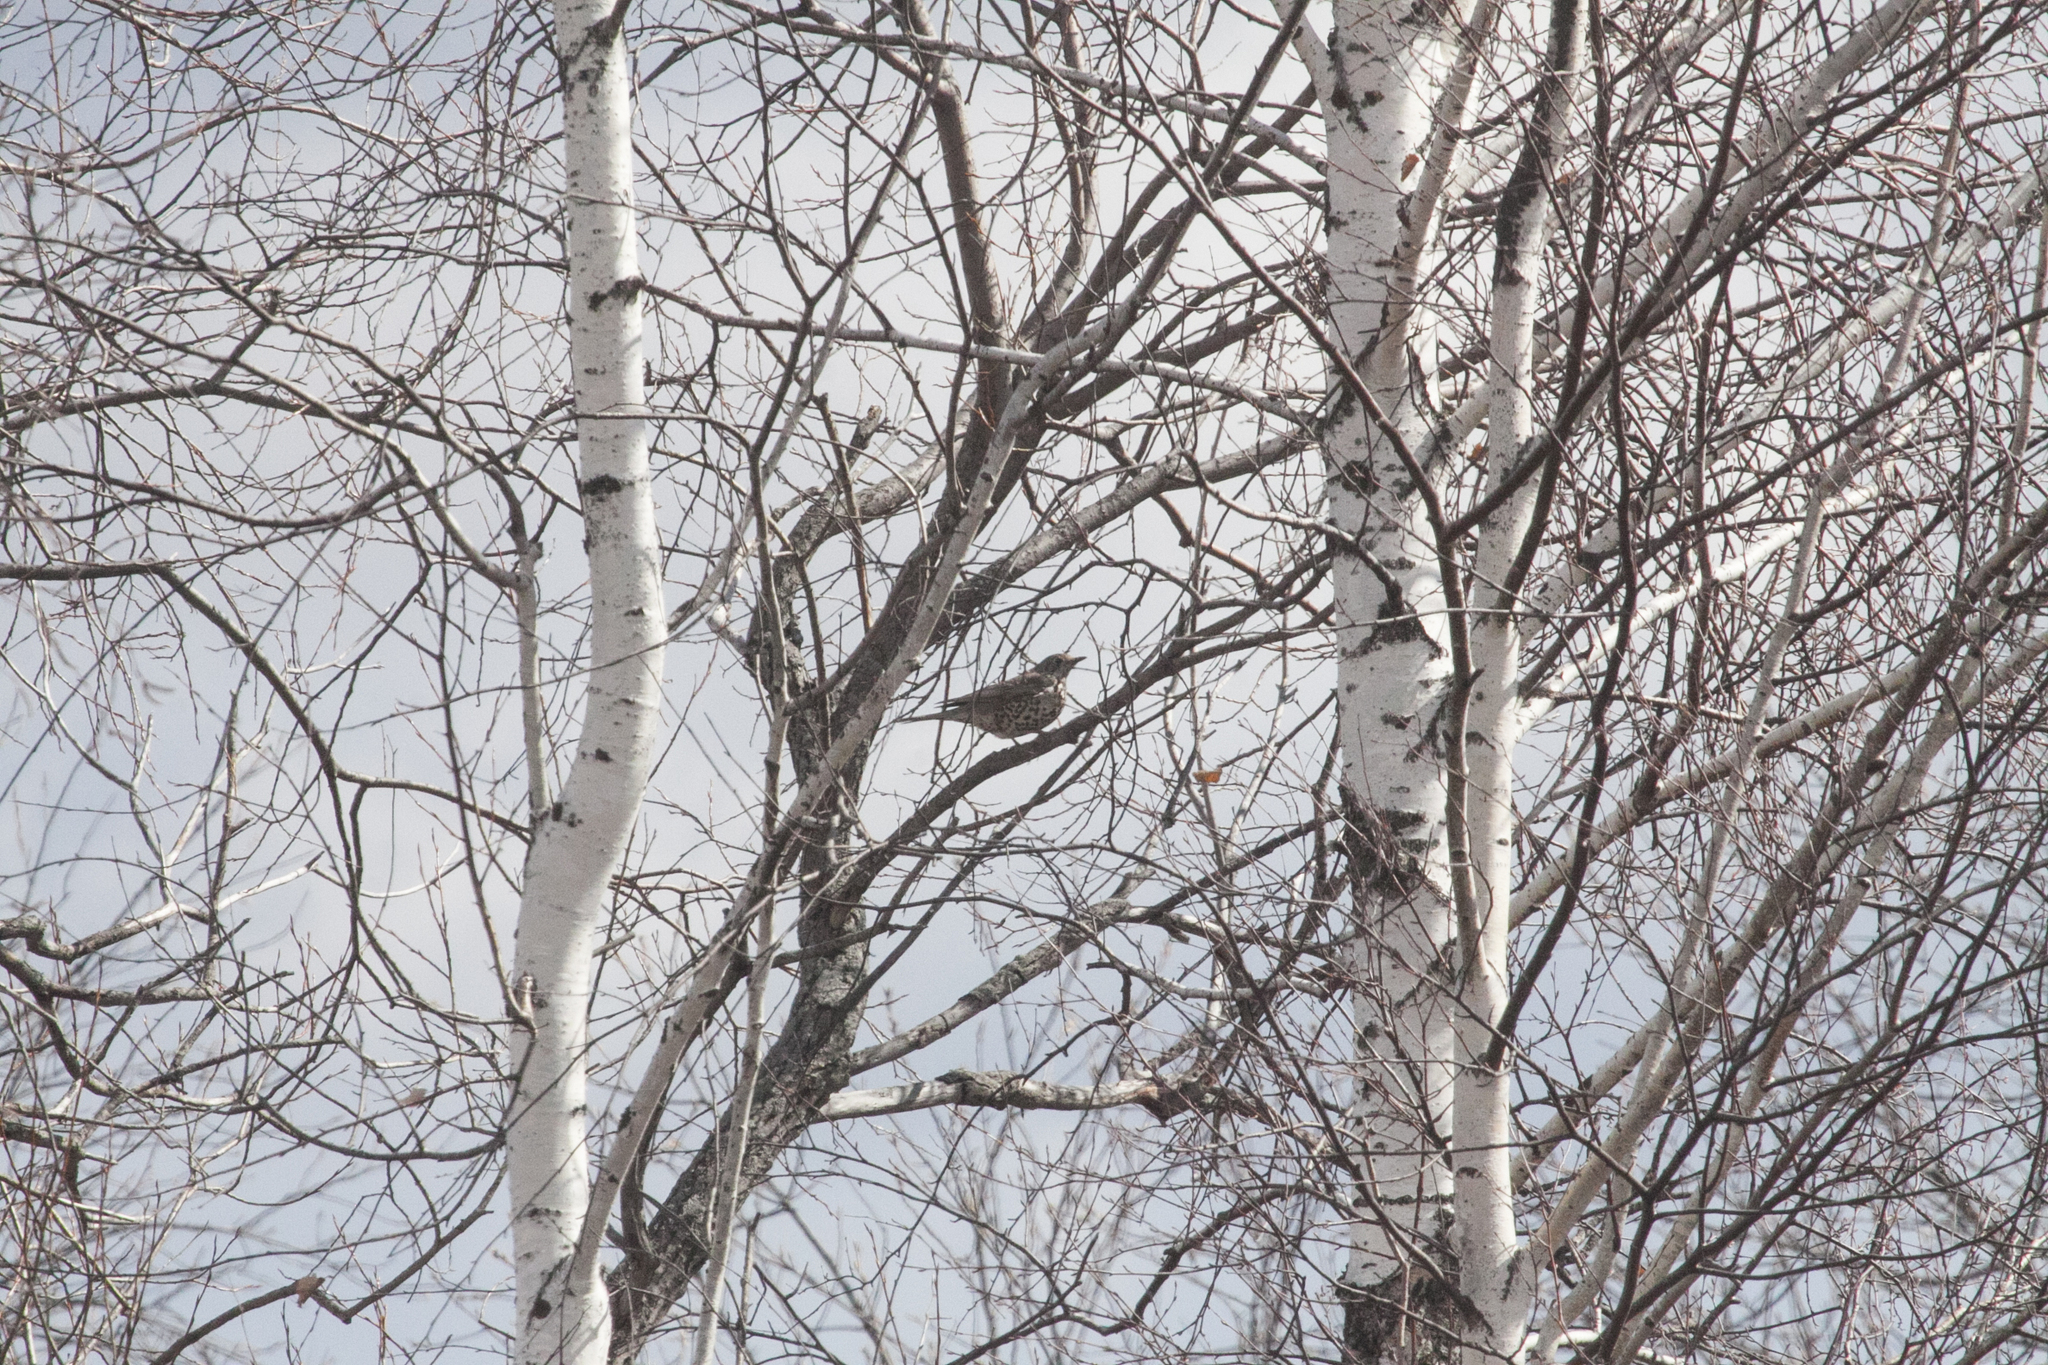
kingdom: Animalia
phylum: Chordata
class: Aves
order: Passeriformes
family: Turdidae
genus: Turdus
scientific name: Turdus viscivorus
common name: Mistle thrush
